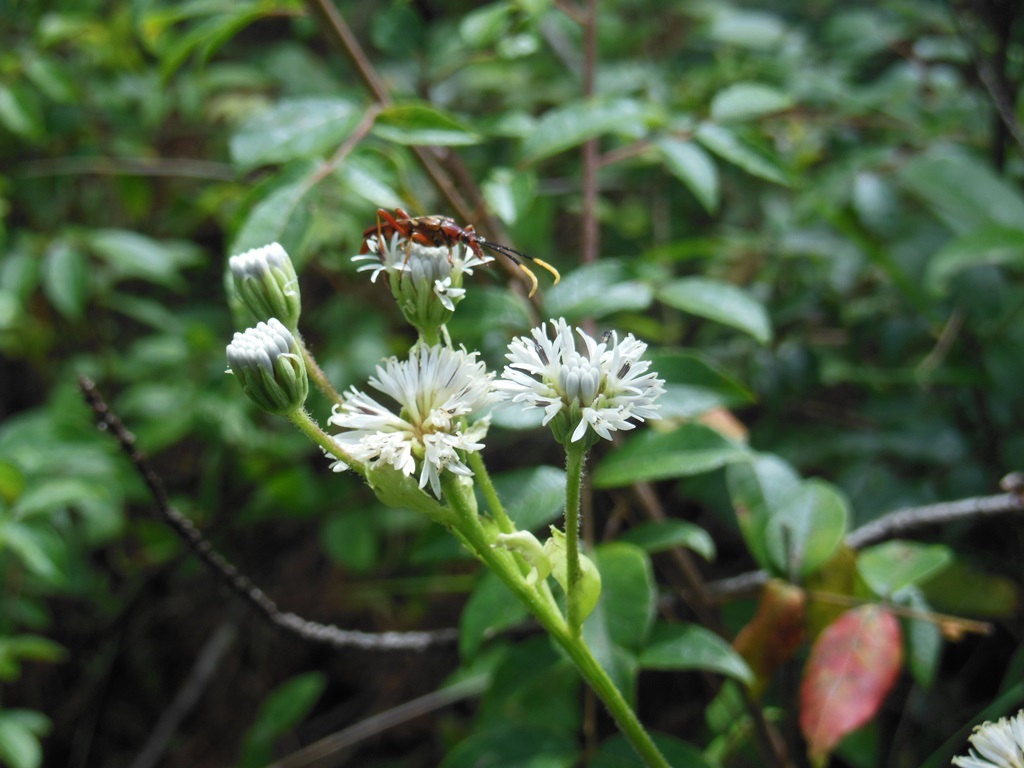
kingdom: Animalia
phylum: Arthropoda
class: Insecta
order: Coleoptera
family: Cerambycidae
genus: Strangalia
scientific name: Strangalia doyeni
